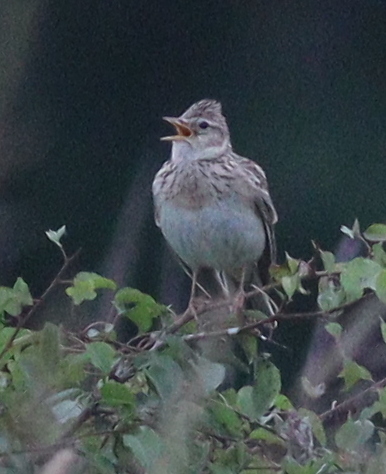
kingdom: Animalia
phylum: Chordata
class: Aves
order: Passeriformes
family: Alaudidae
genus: Alauda
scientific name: Alauda arvensis
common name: Eurasian skylark
